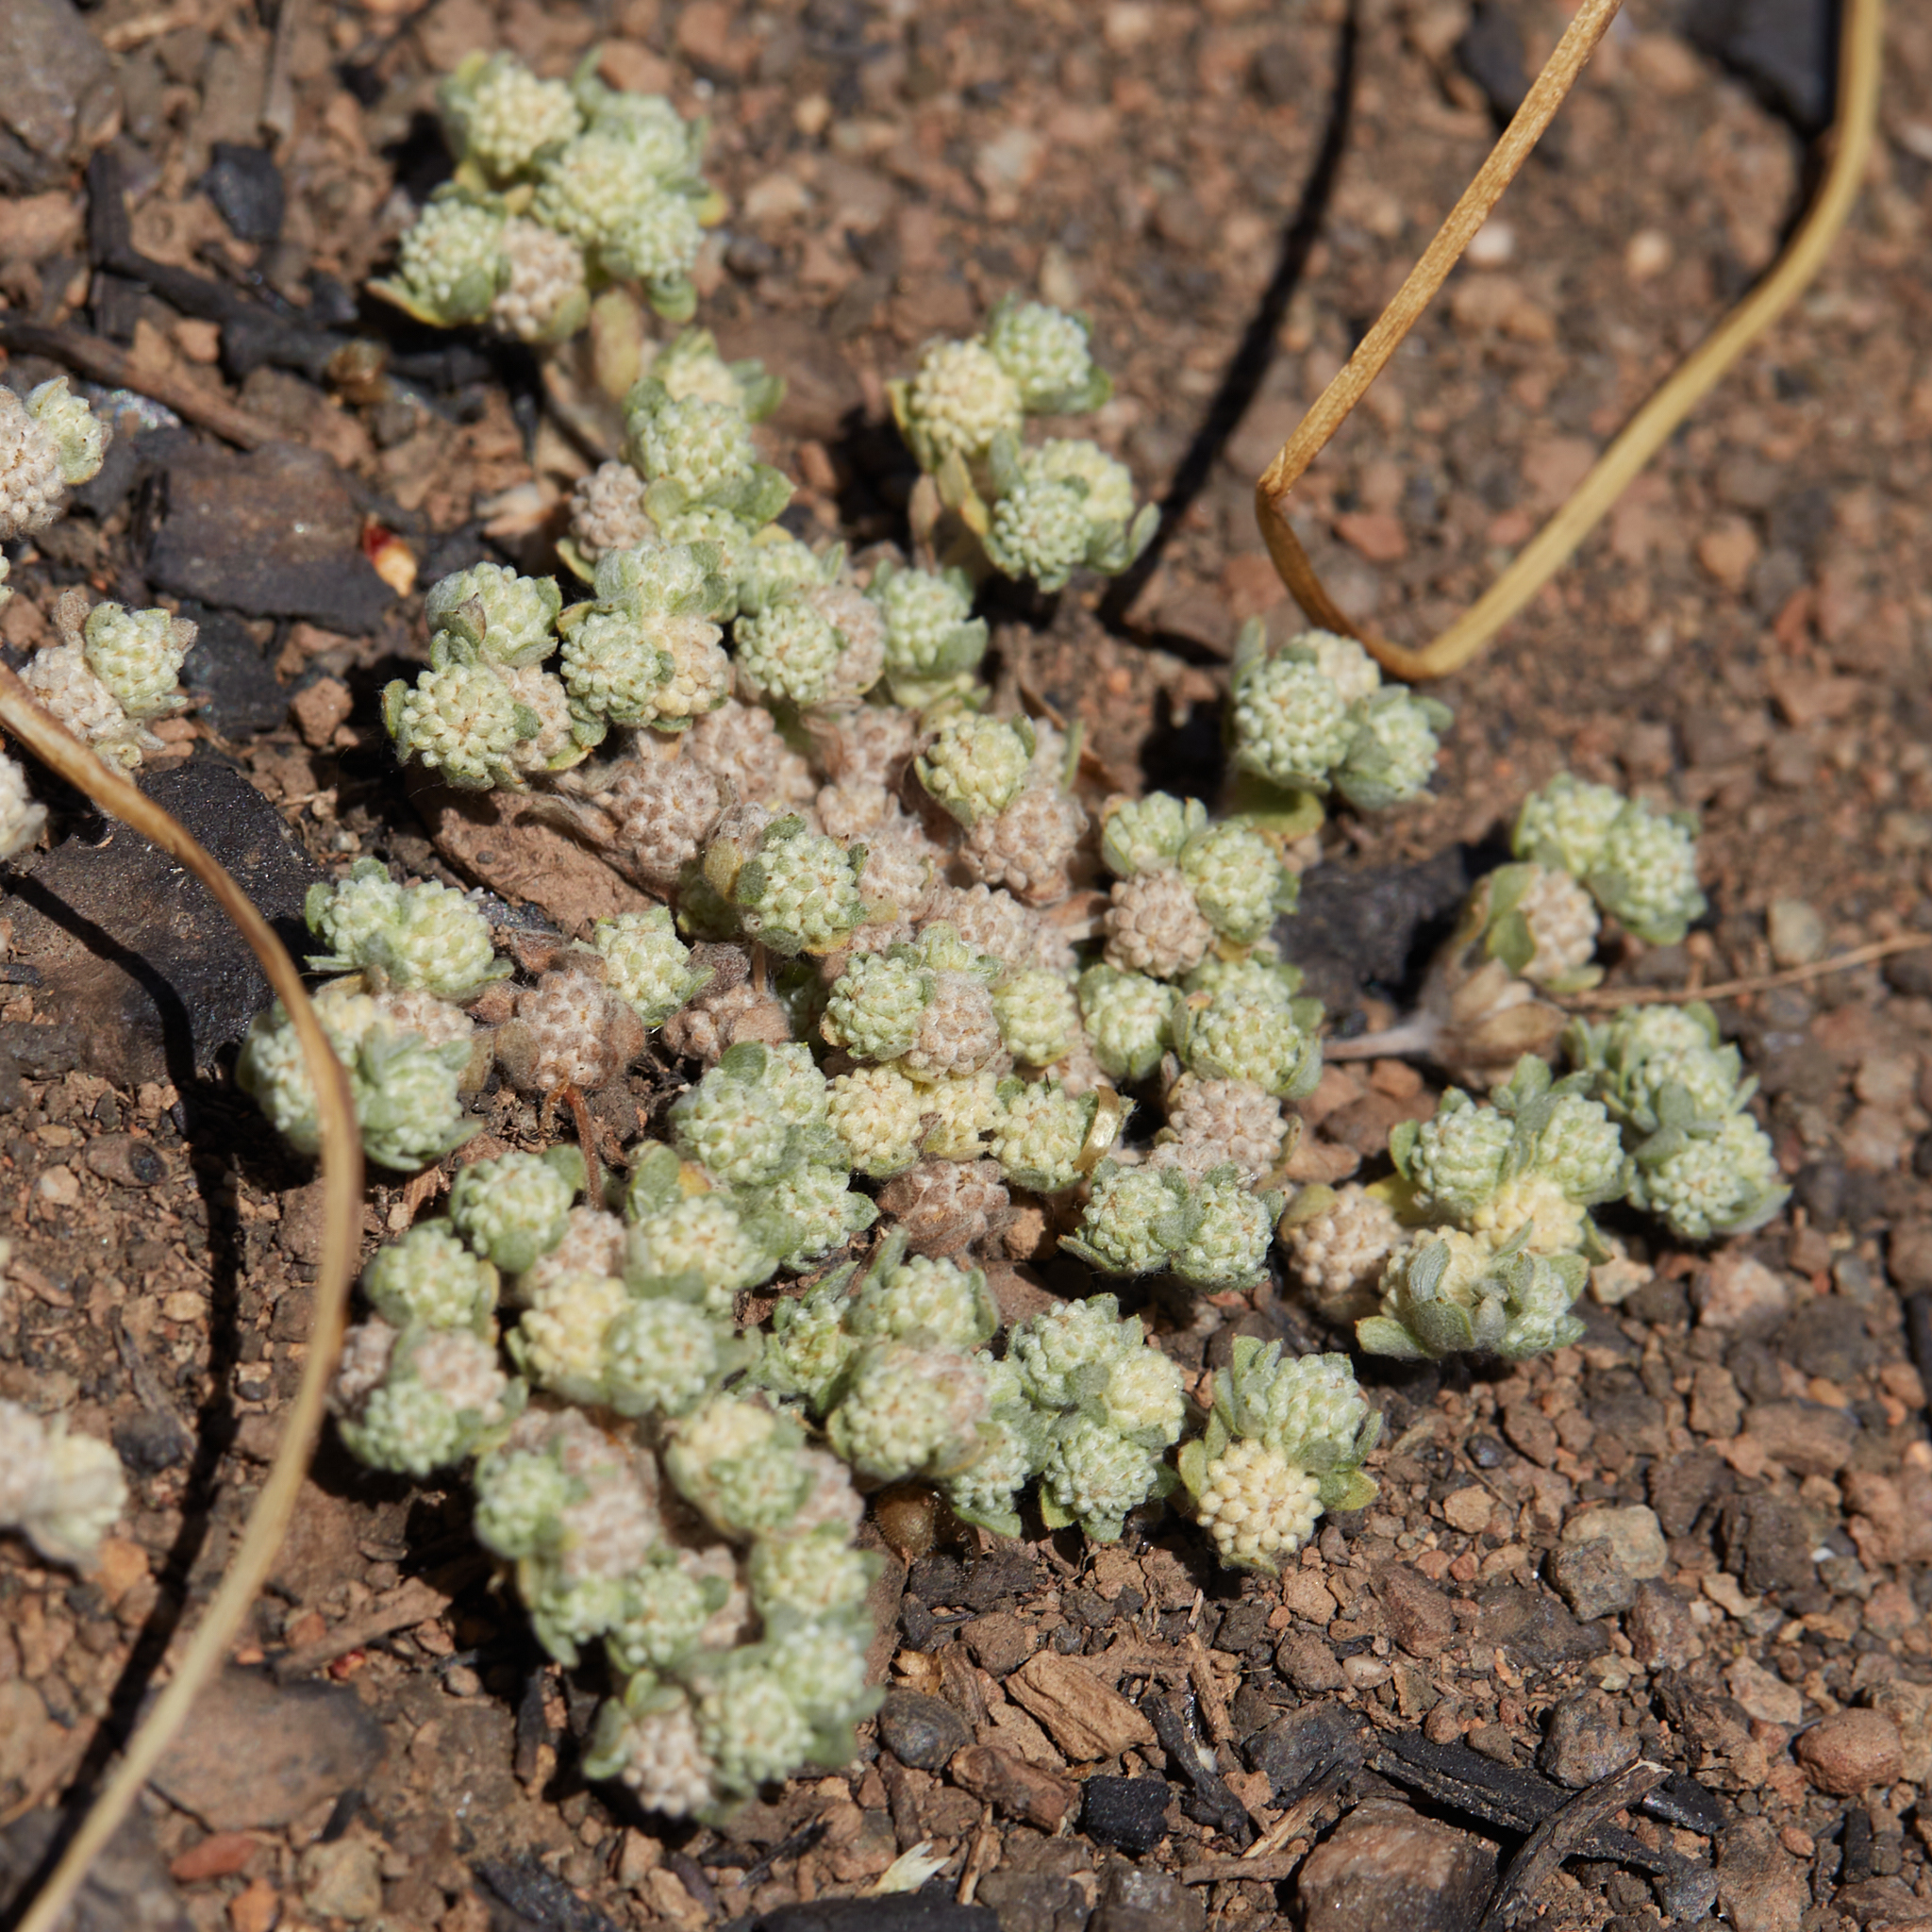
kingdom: Plantae
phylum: Tracheophyta
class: Magnoliopsida
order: Asterales
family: Asteraceae
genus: Psilocarphus
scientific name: Psilocarphus tenellus
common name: Slender woolly-marbles
